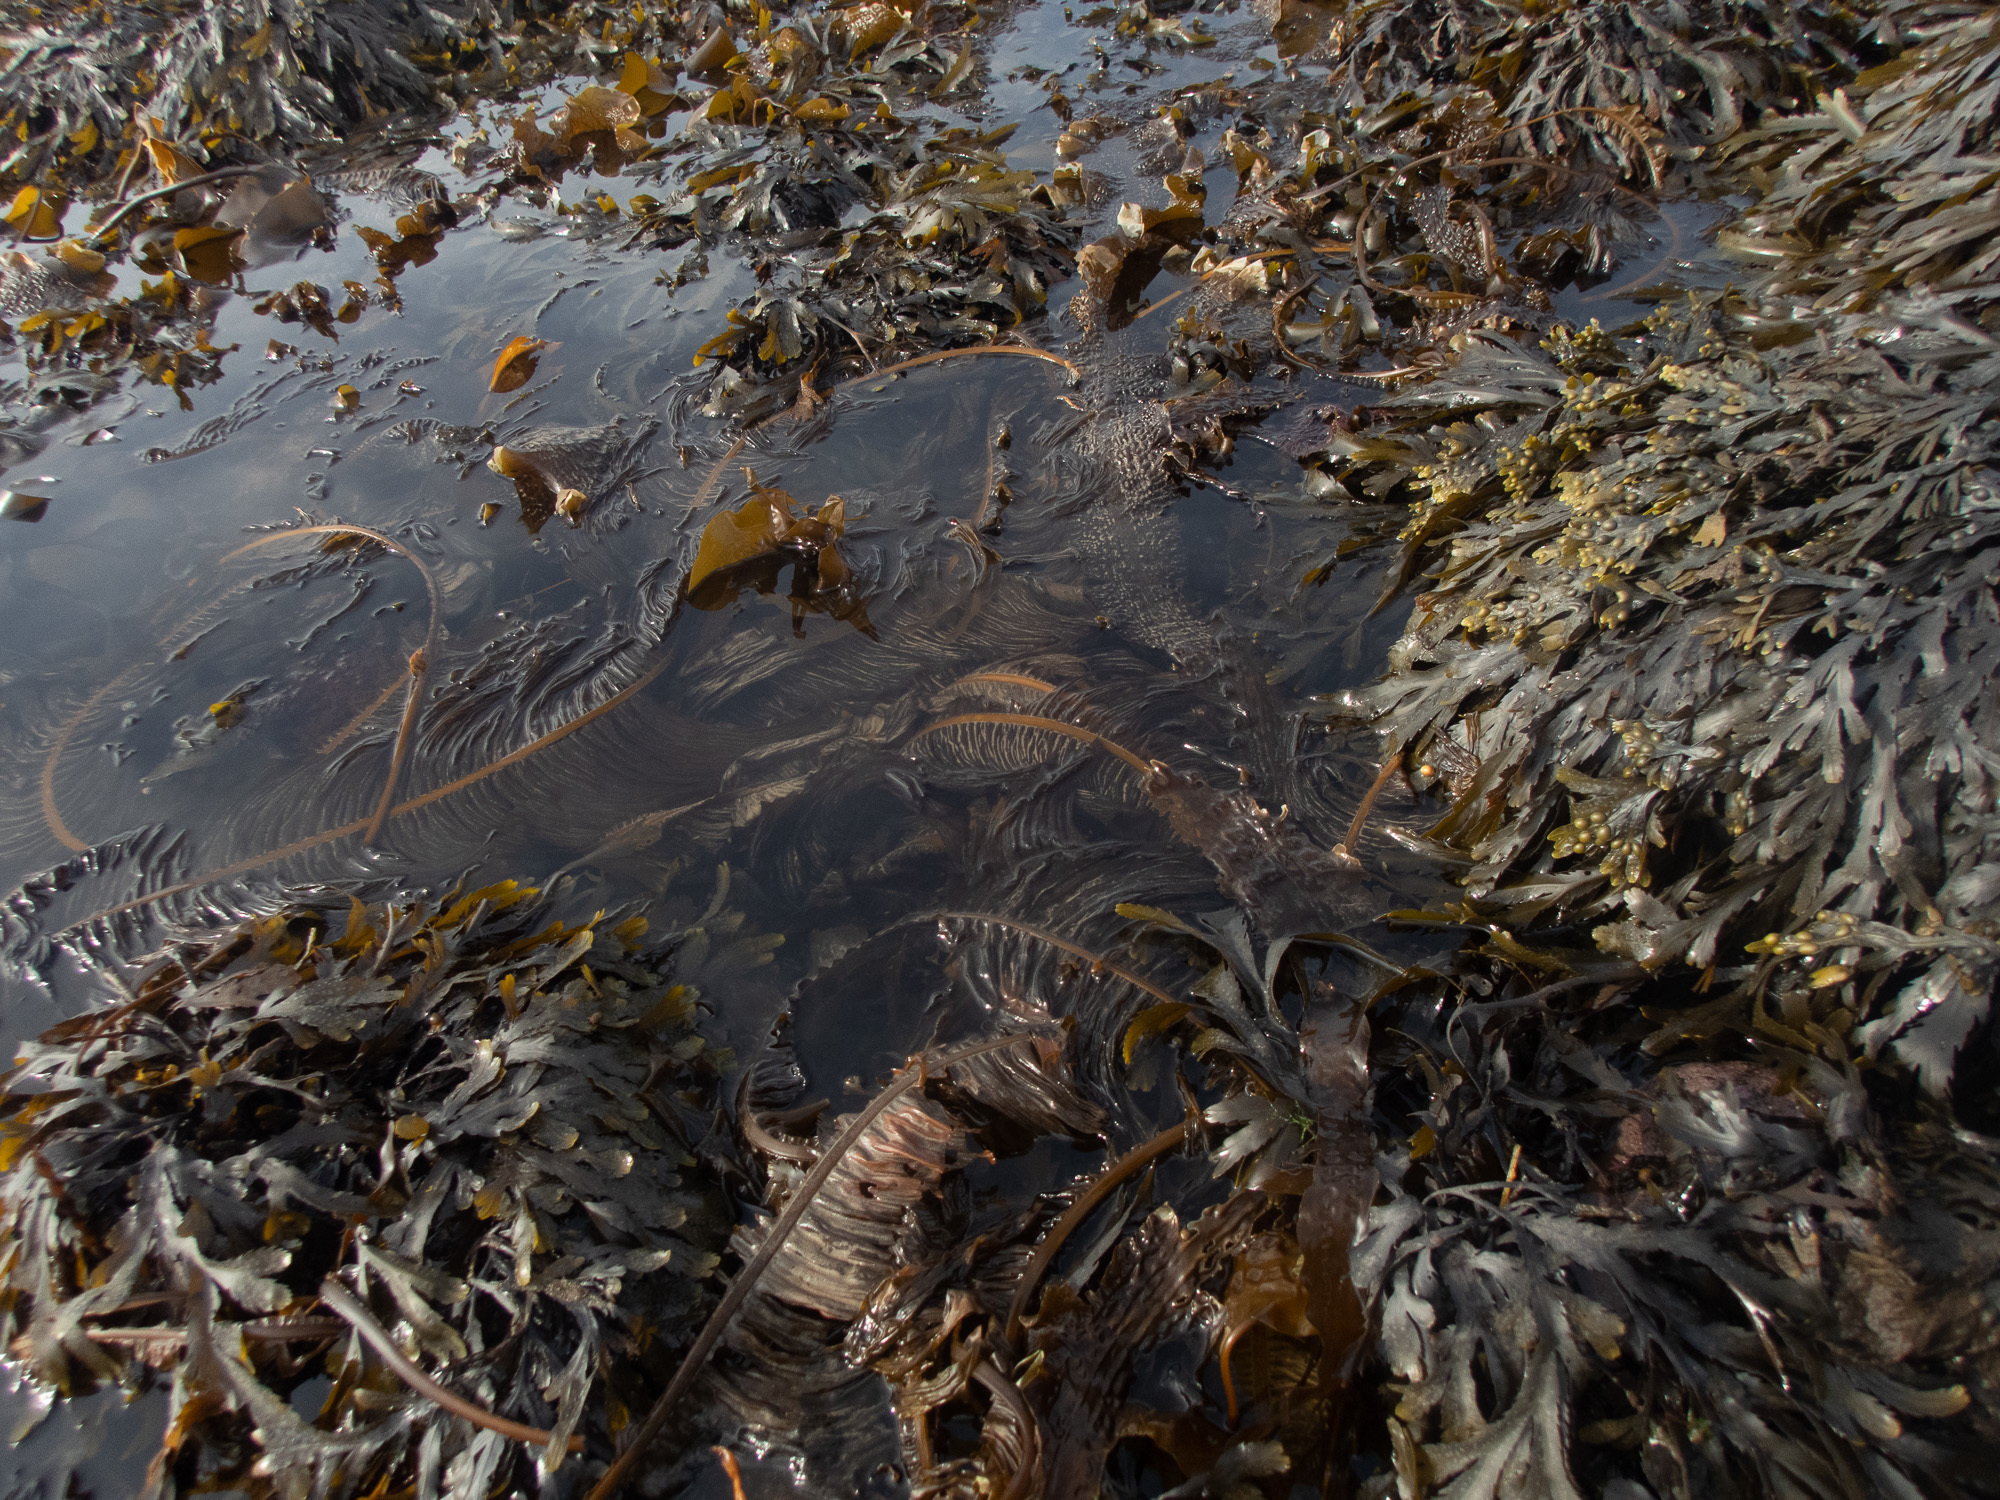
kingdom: Chromista
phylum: Ochrophyta
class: Phaeophyceae
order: Laminariales
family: Alariaceae
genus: Alaria
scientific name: Alaria esculenta
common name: Dabberlocks
